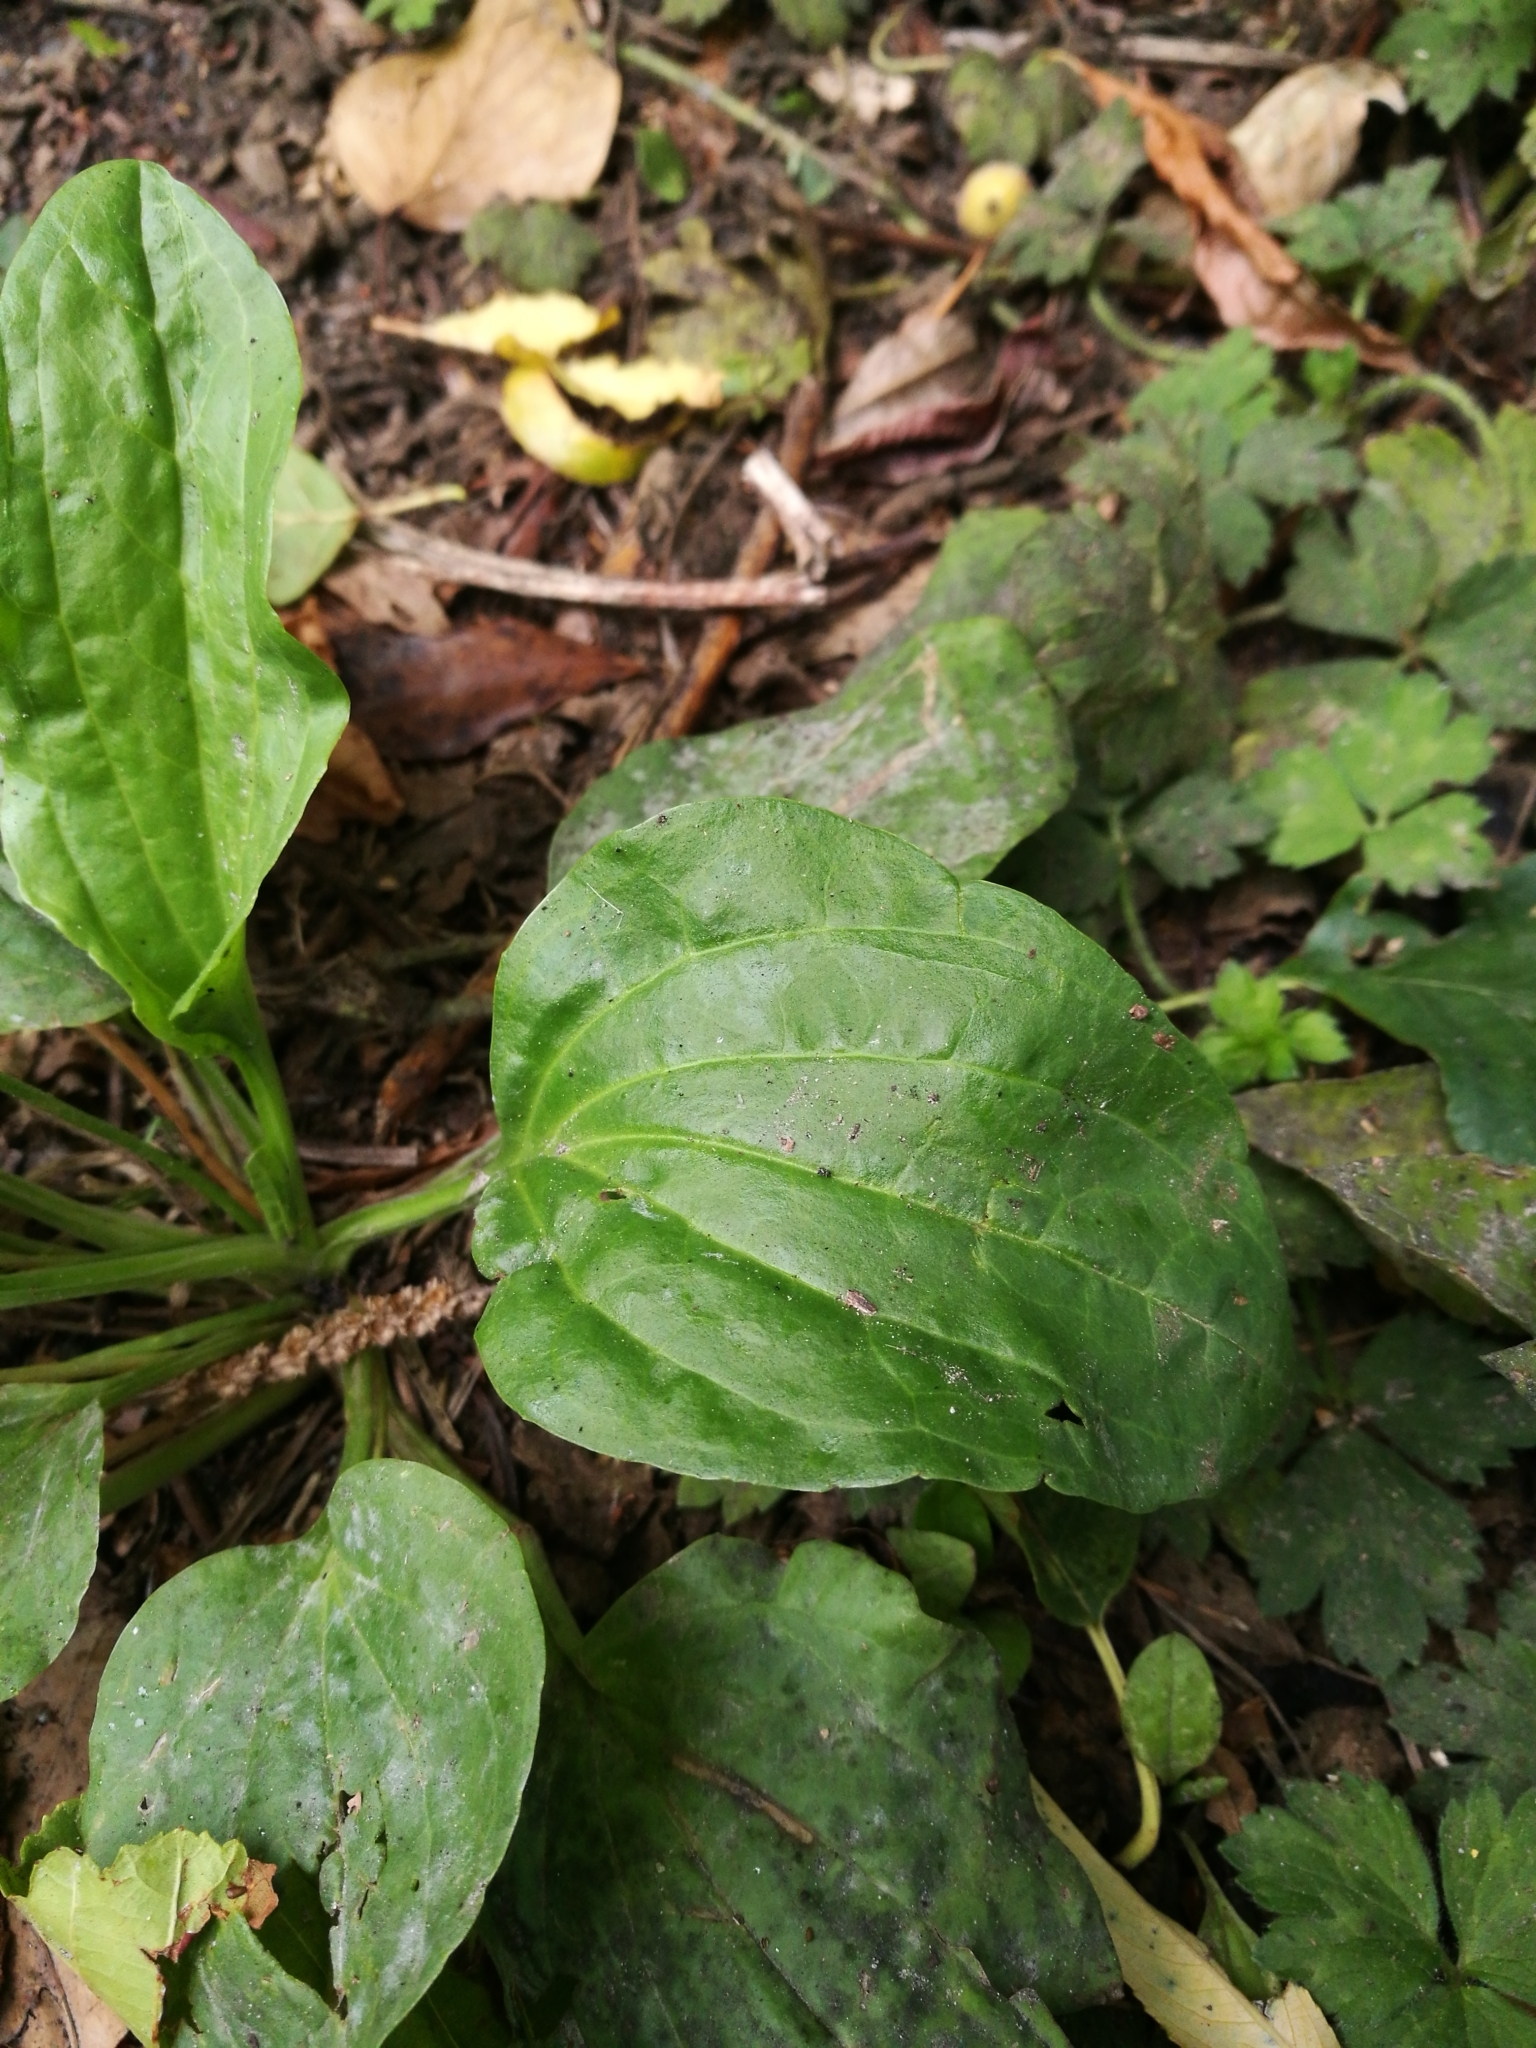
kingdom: Plantae
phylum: Tracheophyta
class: Magnoliopsida
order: Lamiales
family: Plantaginaceae
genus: Plantago
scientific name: Plantago major
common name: Common plantain
